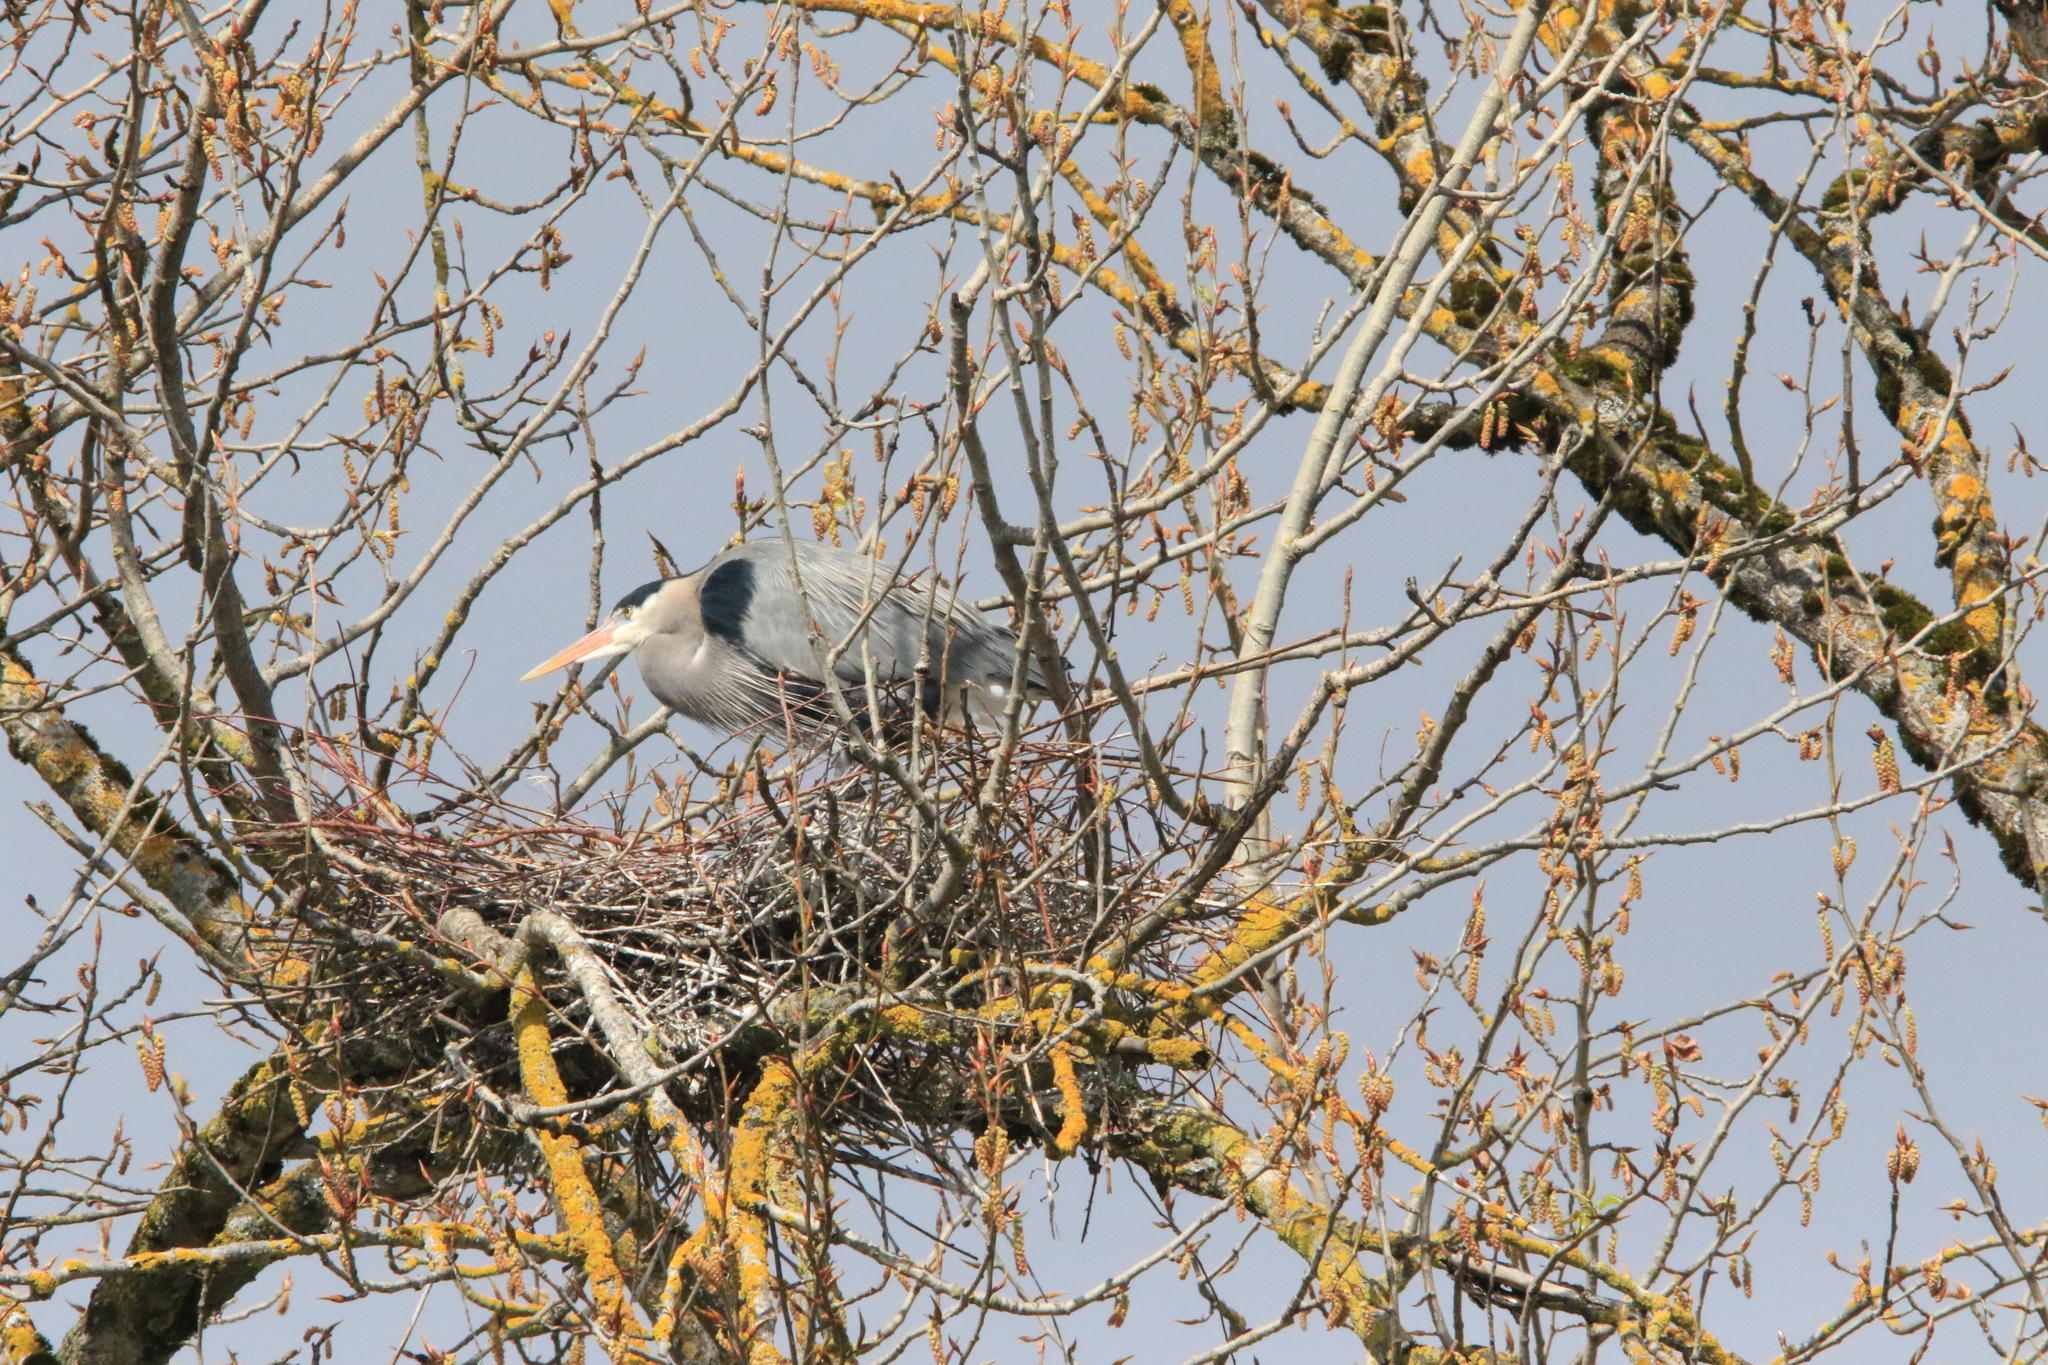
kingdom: Animalia
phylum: Chordata
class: Aves
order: Pelecaniformes
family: Ardeidae
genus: Ardea
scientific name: Ardea herodias
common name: Great blue heron
